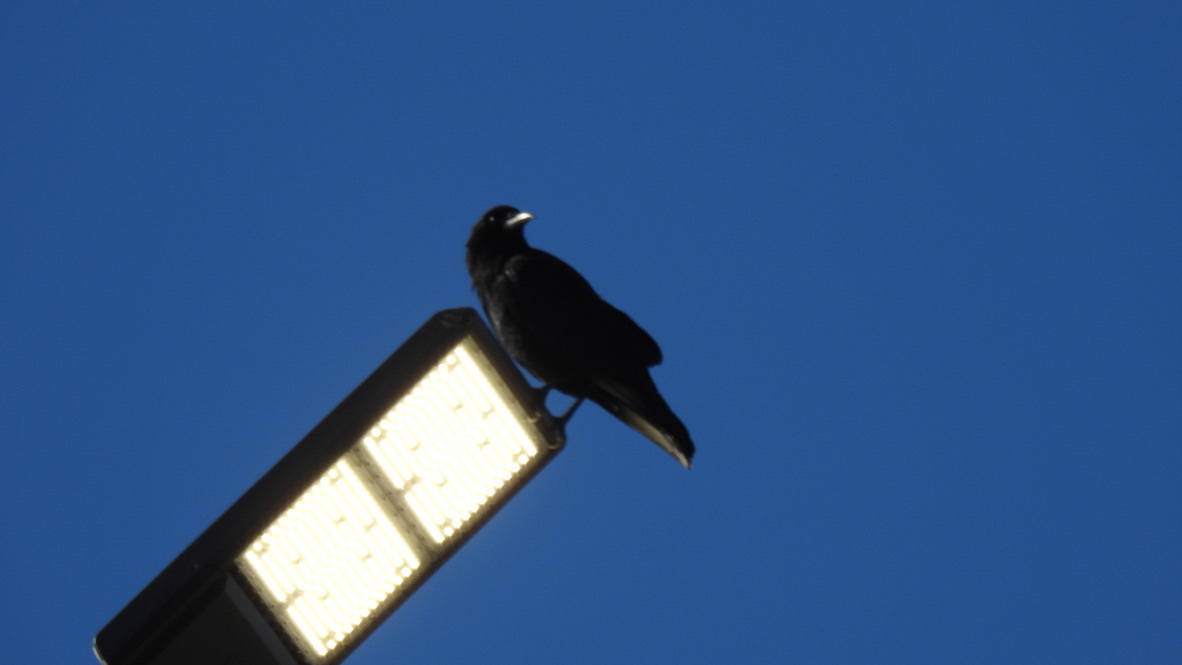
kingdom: Animalia
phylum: Chordata
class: Aves
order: Passeriformes
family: Corvidae
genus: Corvus
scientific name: Corvus brachyrhynchos
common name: American crow
